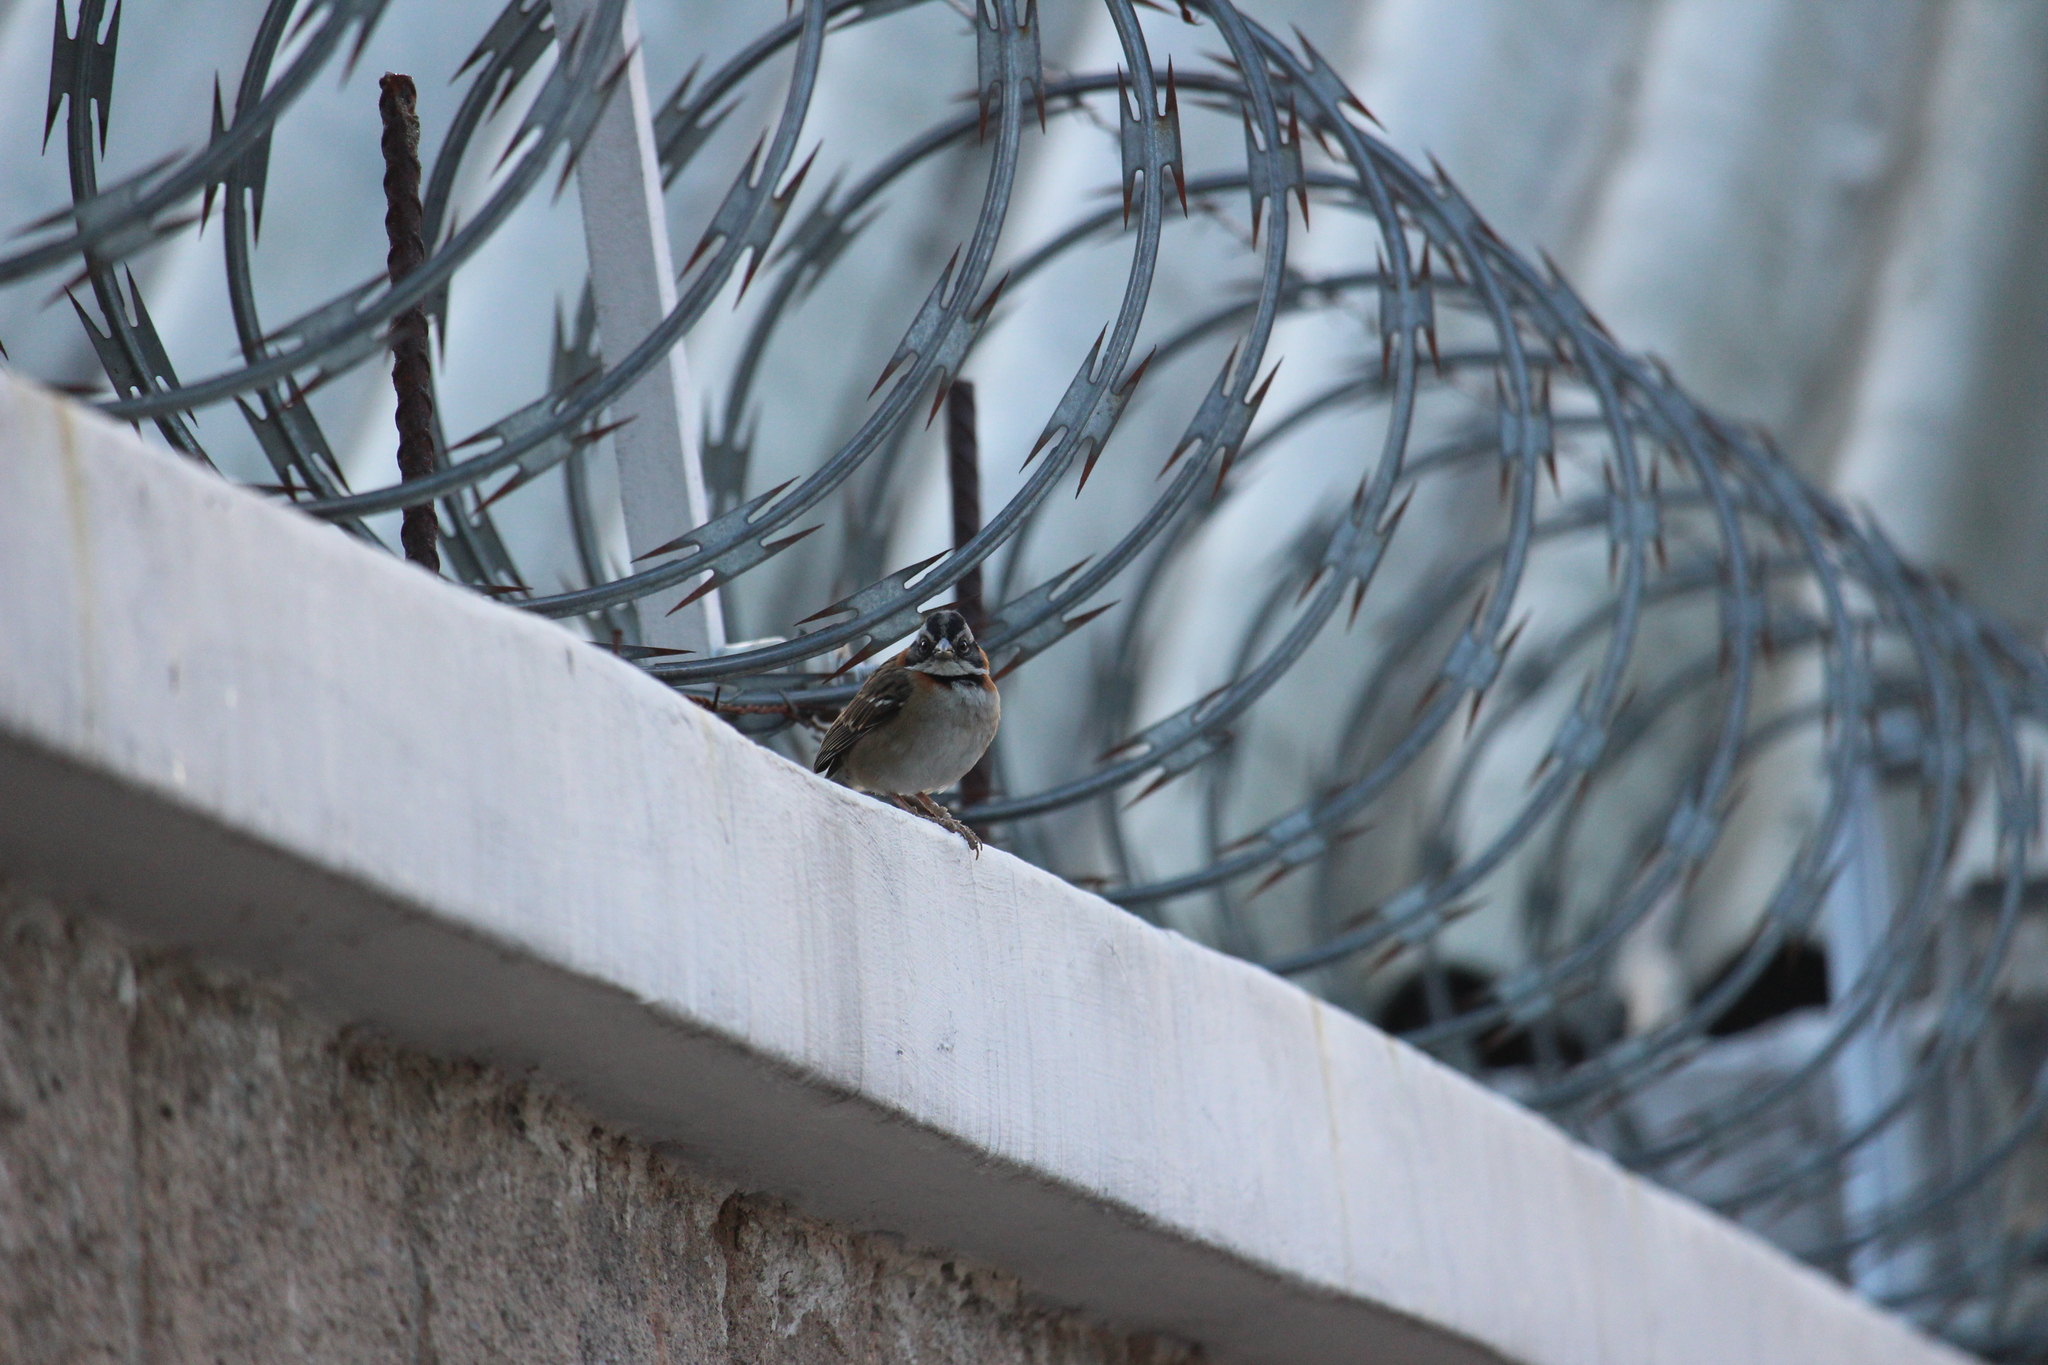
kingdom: Animalia
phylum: Chordata
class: Aves
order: Passeriformes
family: Passerellidae
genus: Zonotrichia
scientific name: Zonotrichia capensis
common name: Rufous-collared sparrow
